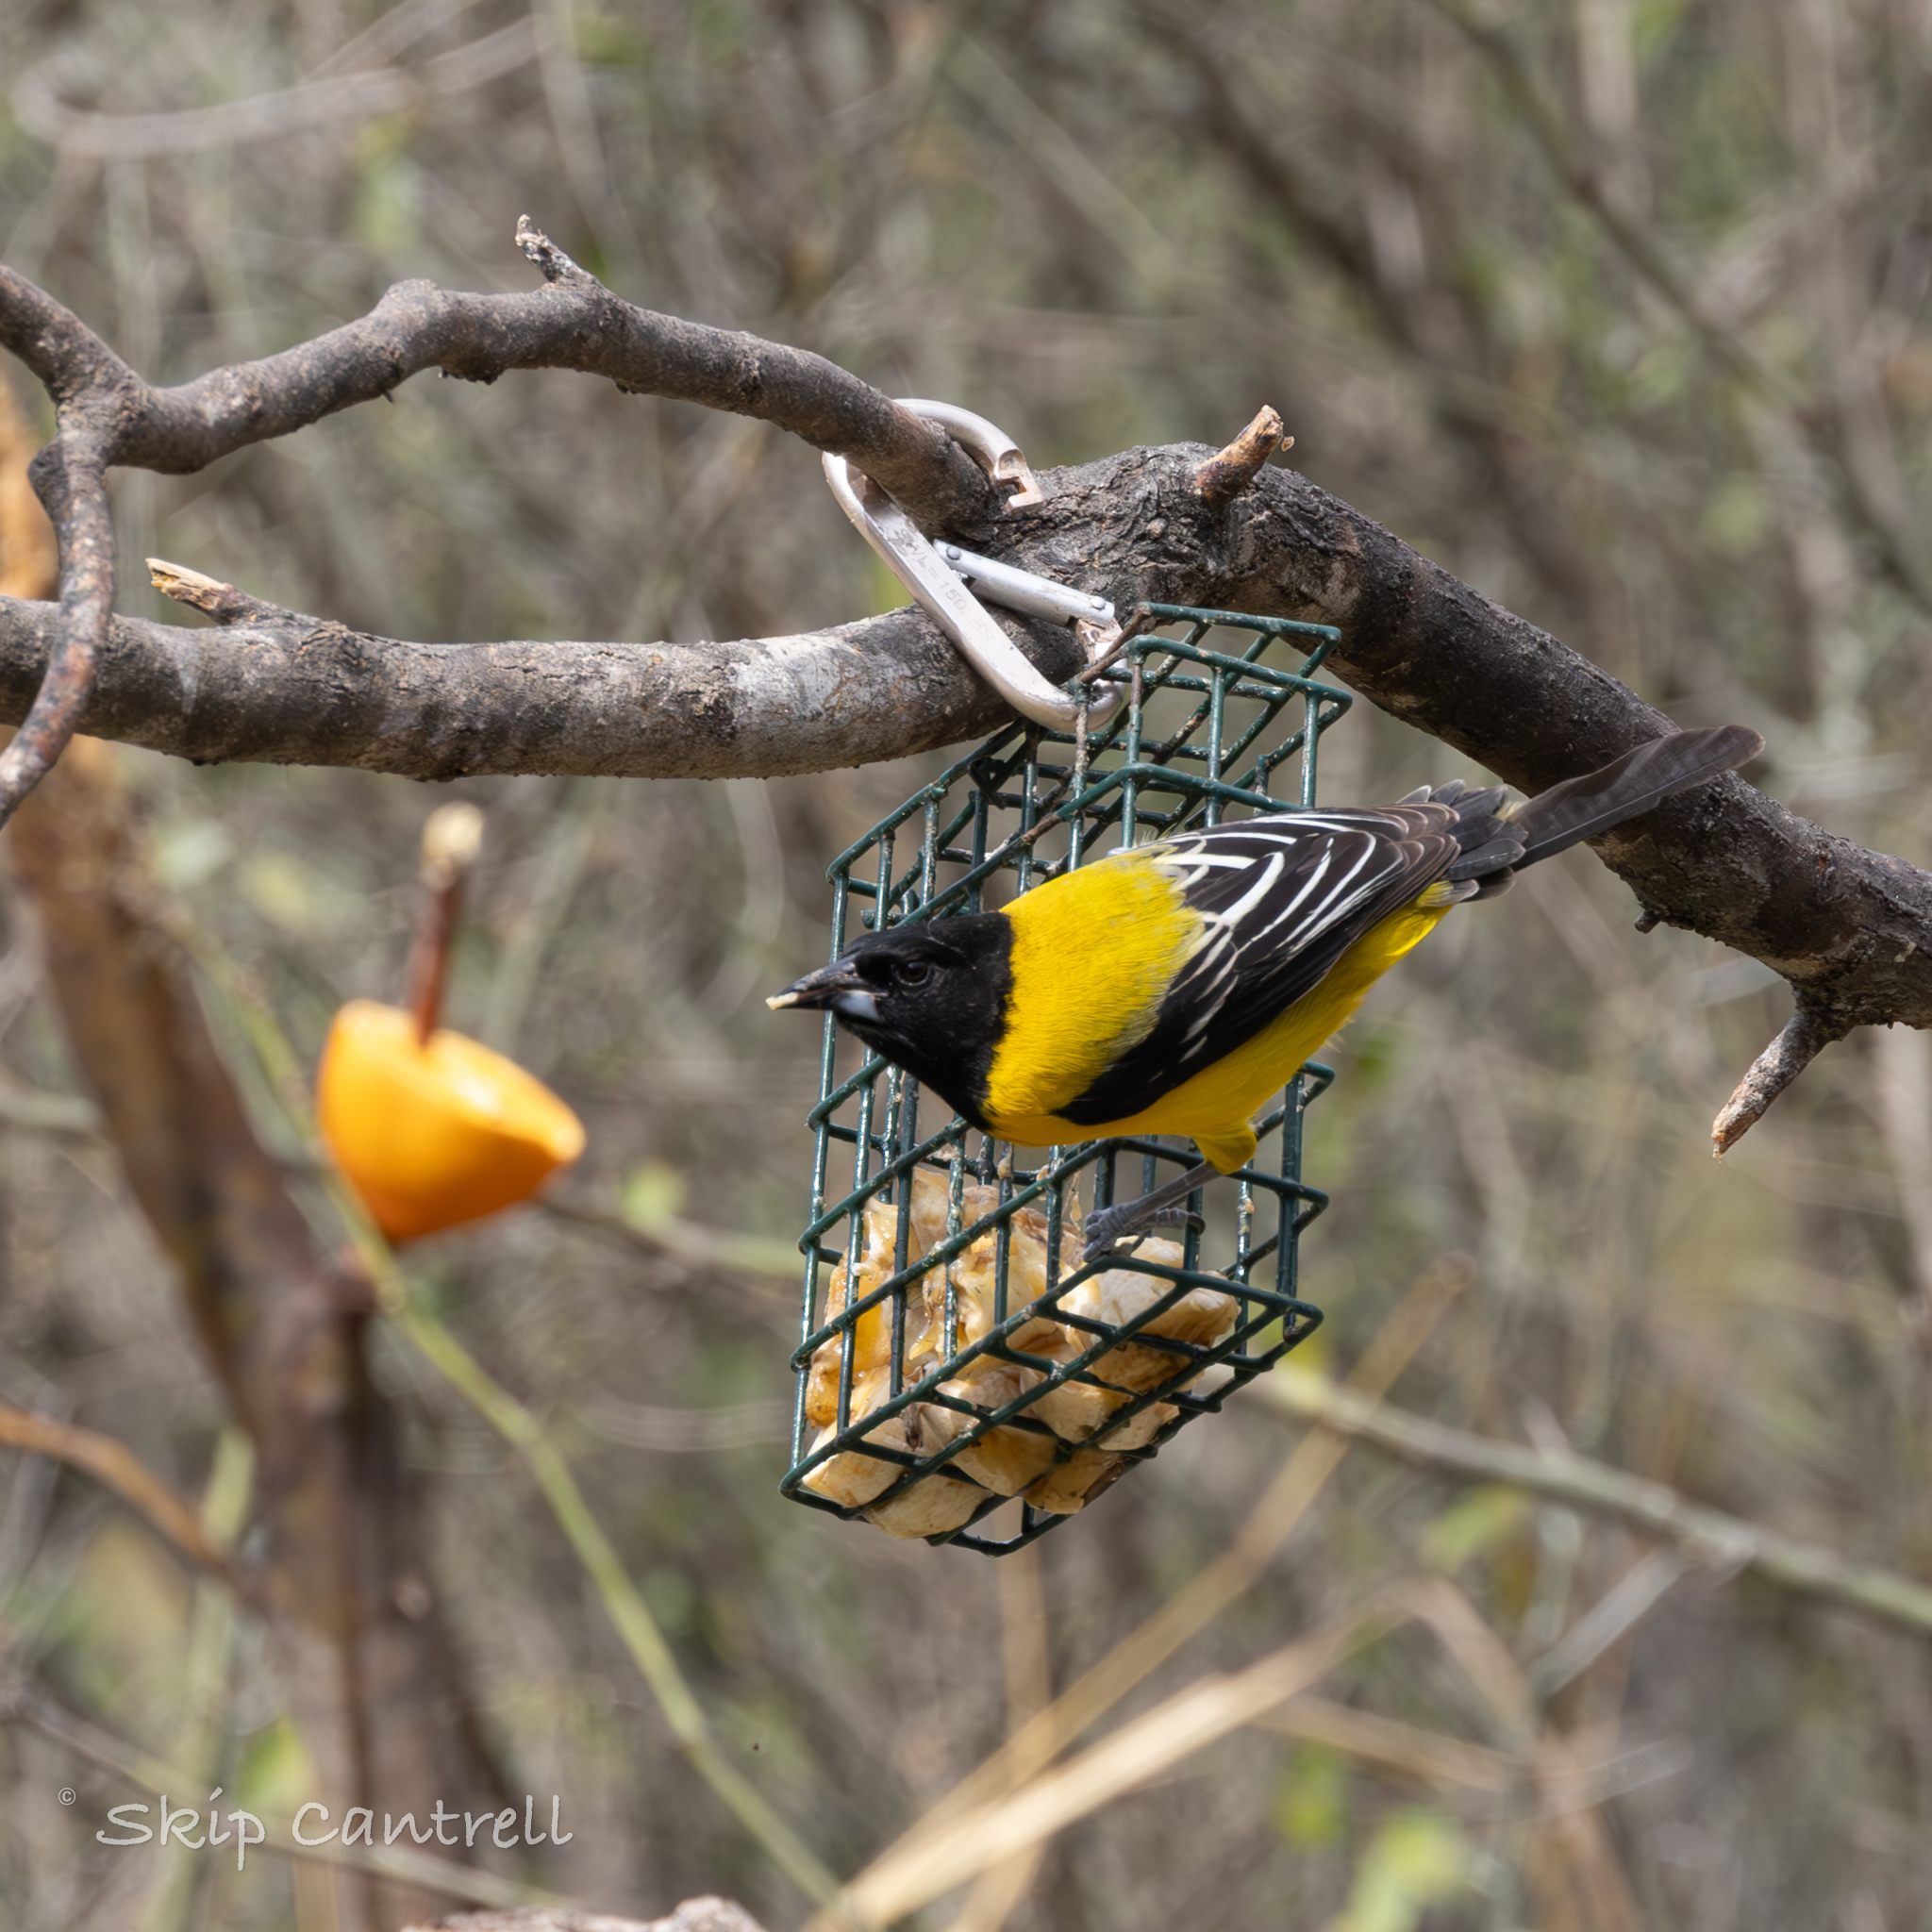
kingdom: Animalia
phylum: Chordata
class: Aves
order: Passeriformes
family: Icteridae
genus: Icterus
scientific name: Icterus graduacauda
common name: Audubon's oriole
